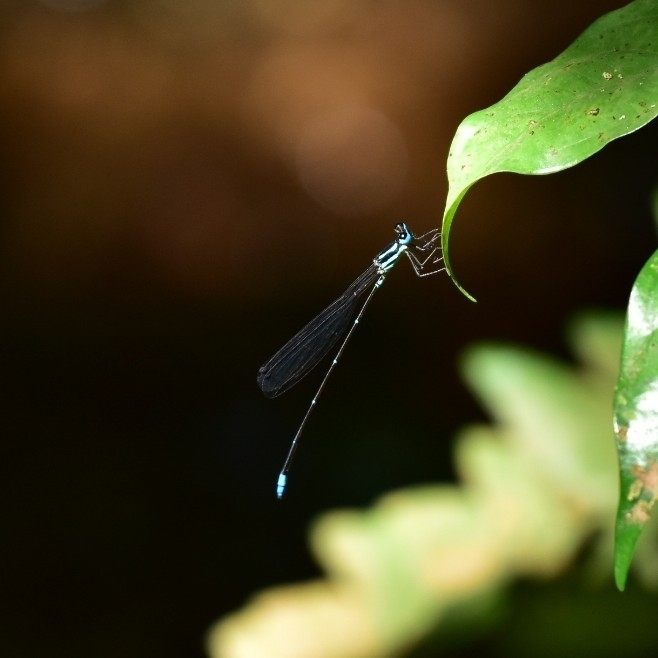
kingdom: Animalia
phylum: Arthropoda
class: Insecta
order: Odonata
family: Platycnemididae
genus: Caconeura
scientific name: Caconeura risi
